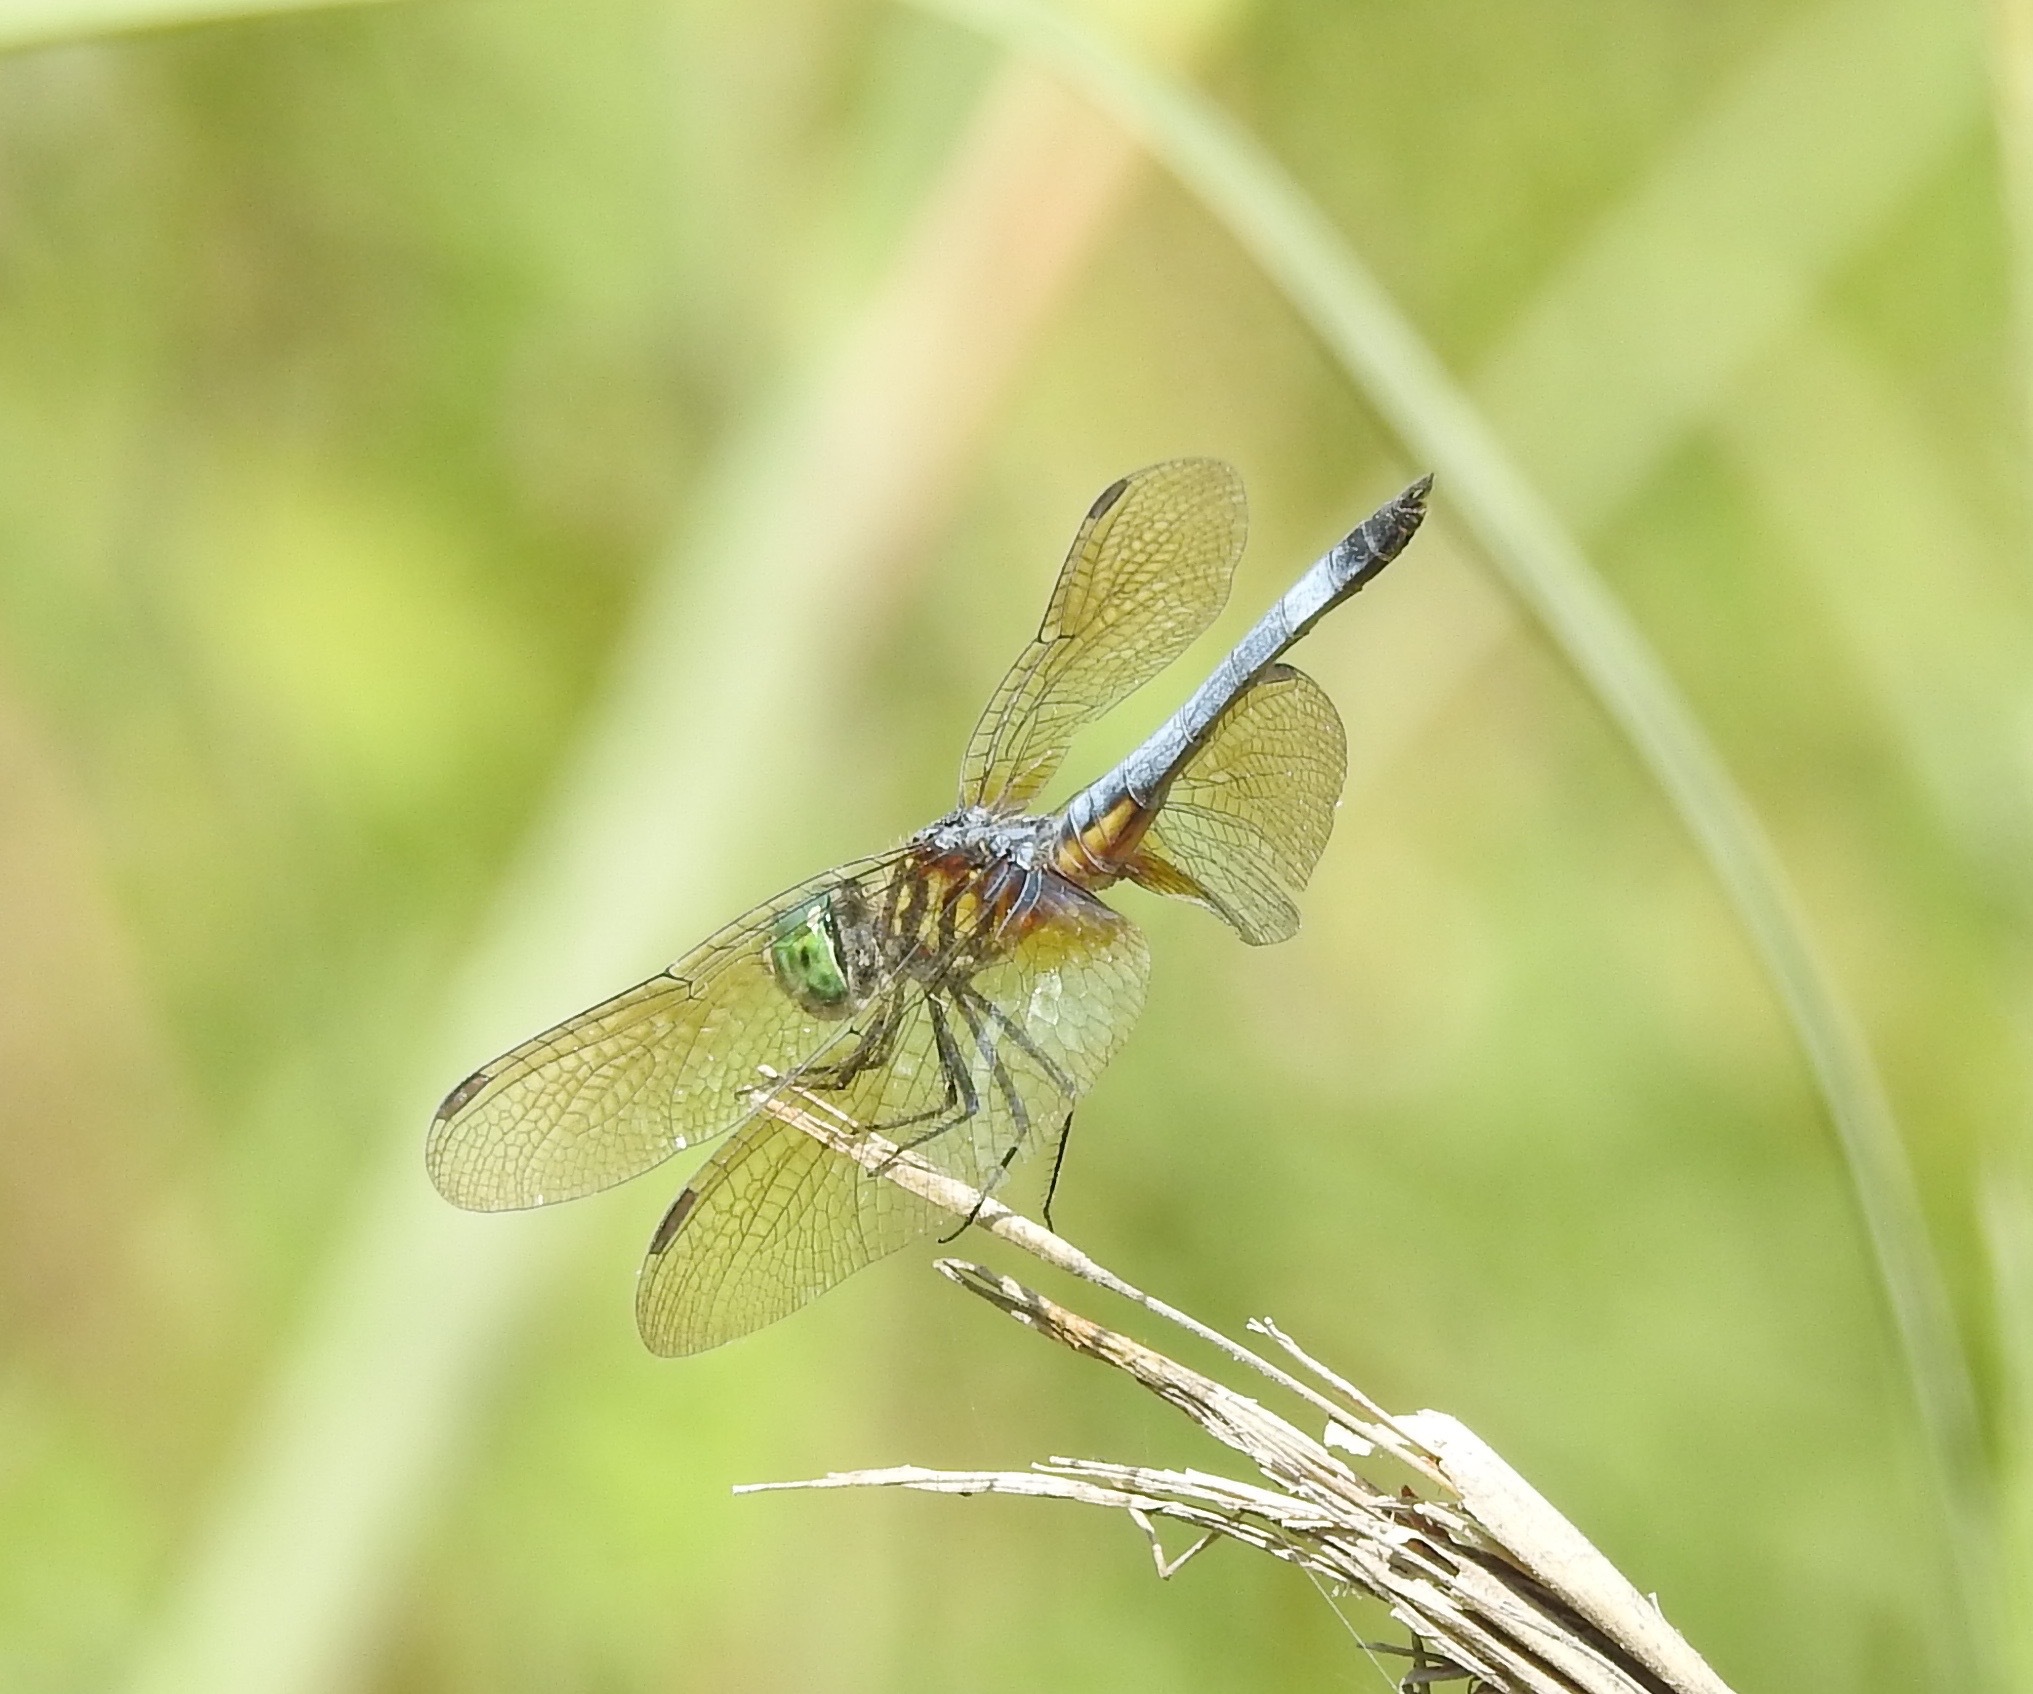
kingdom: Animalia
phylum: Arthropoda
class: Insecta
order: Odonata
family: Libellulidae
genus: Pachydiplax
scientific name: Pachydiplax longipennis
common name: Blue dasher
